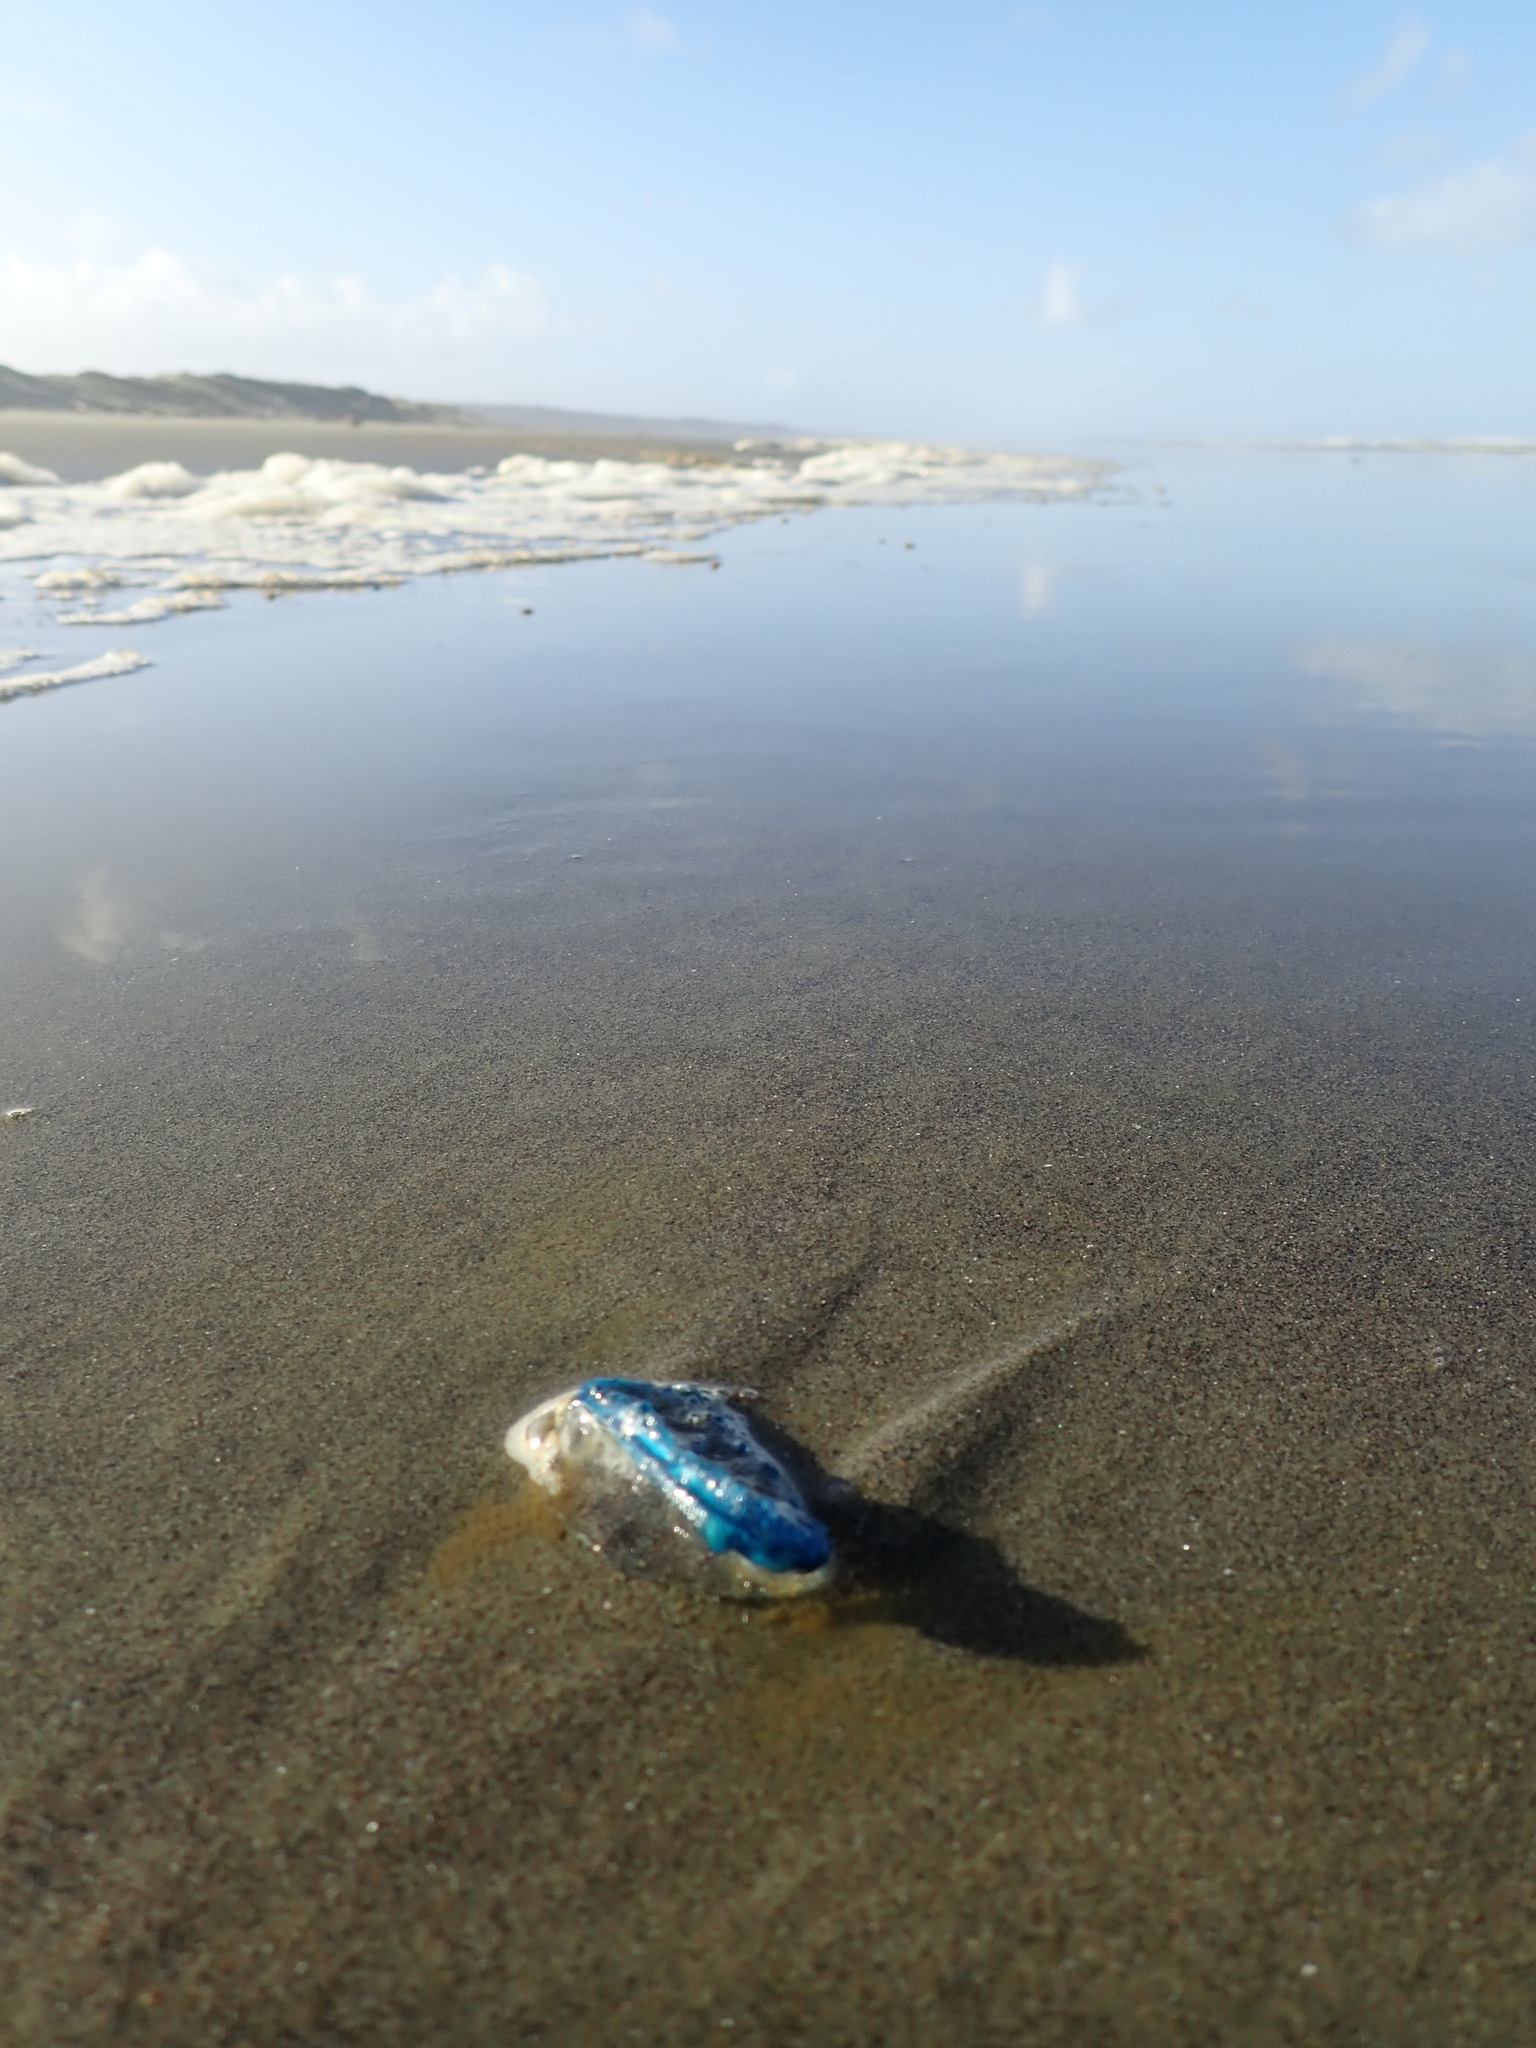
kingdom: Animalia
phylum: Cnidaria
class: Hydrozoa
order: Anthoathecata
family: Porpitidae
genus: Velella
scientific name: Velella velella
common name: By-the-wind-sailor
